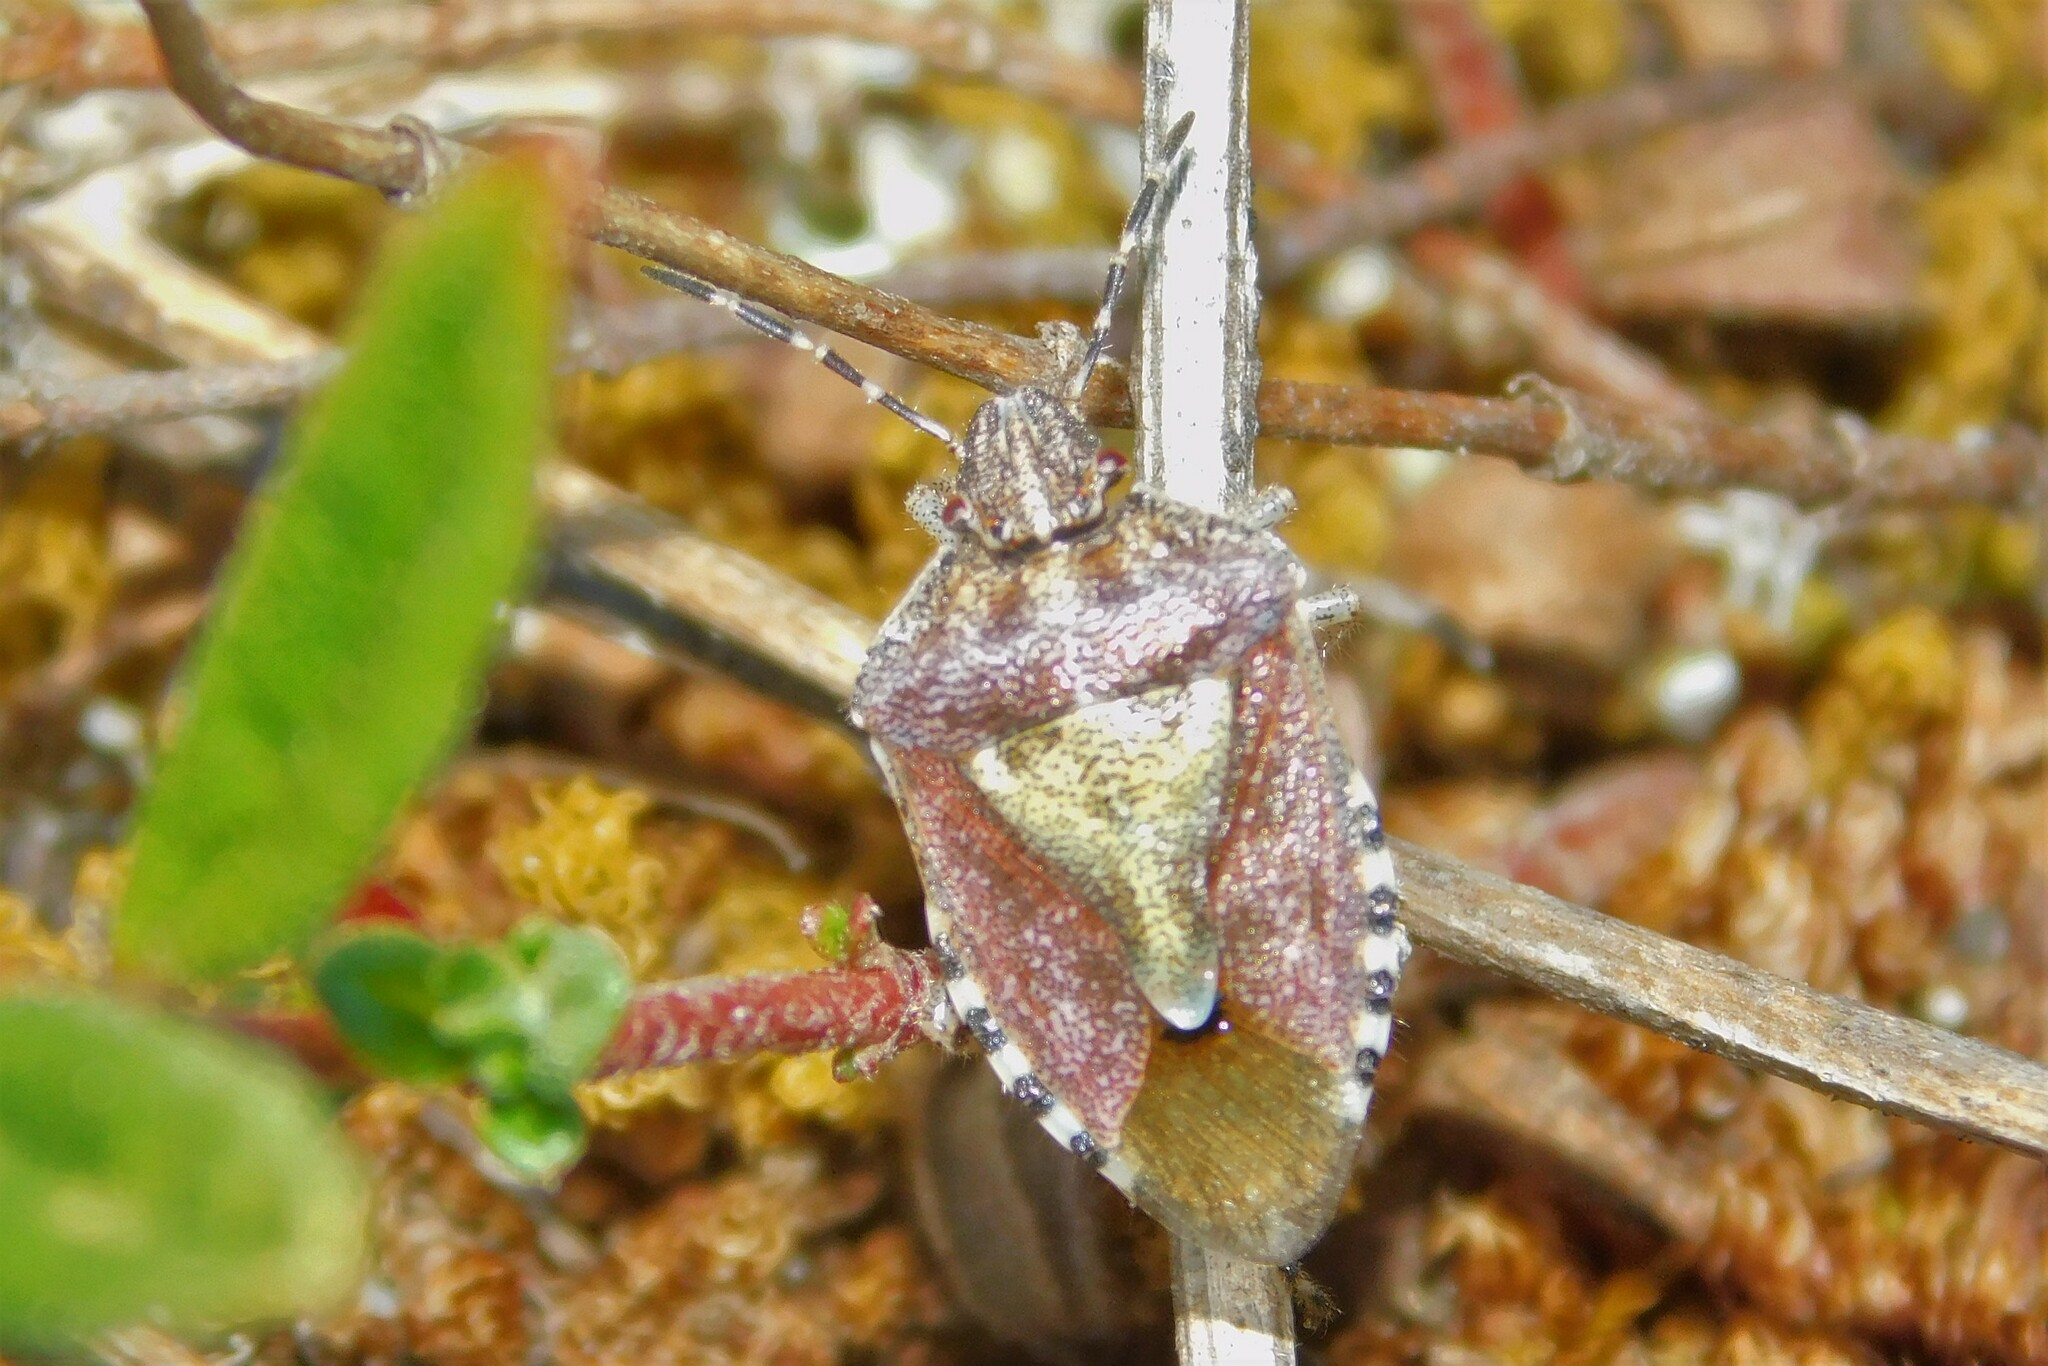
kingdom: Animalia
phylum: Arthropoda
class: Insecta
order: Hemiptera
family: Pentatomidae
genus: Dolycoris
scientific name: Dolycoris baccarum
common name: Sloe bug
